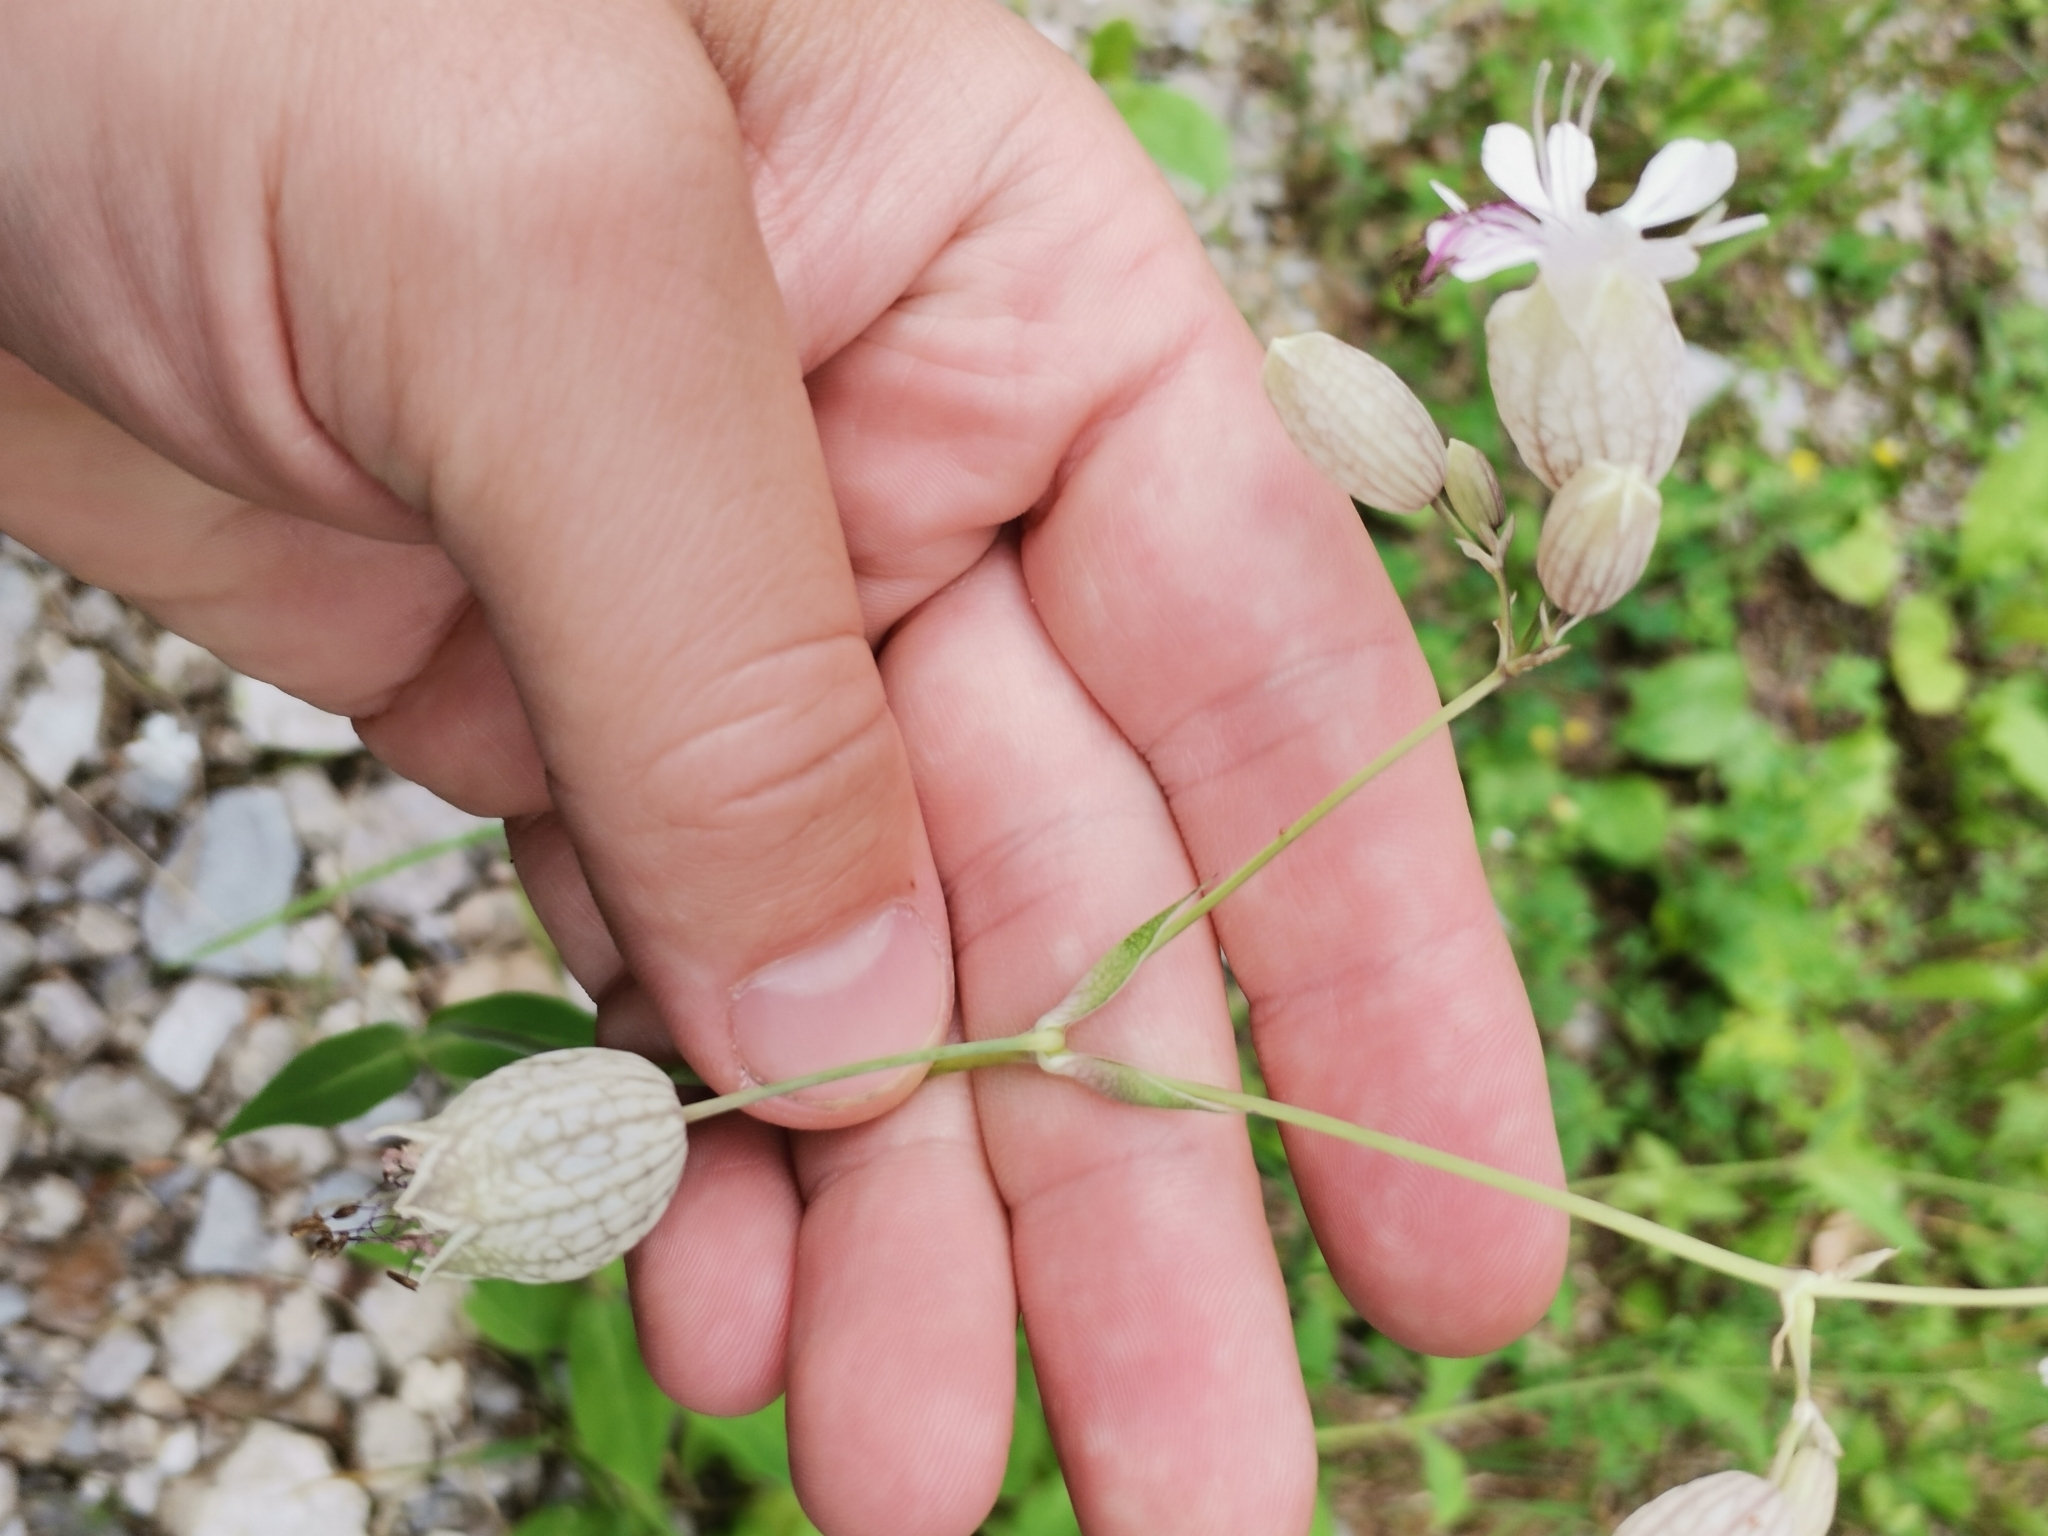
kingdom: Plantae
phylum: Tracheophyta
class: Magnoliopsida
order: Caryophyllales
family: Caryophyllaceae
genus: Silene
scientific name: Silene vulgaris
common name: Bladder campion
